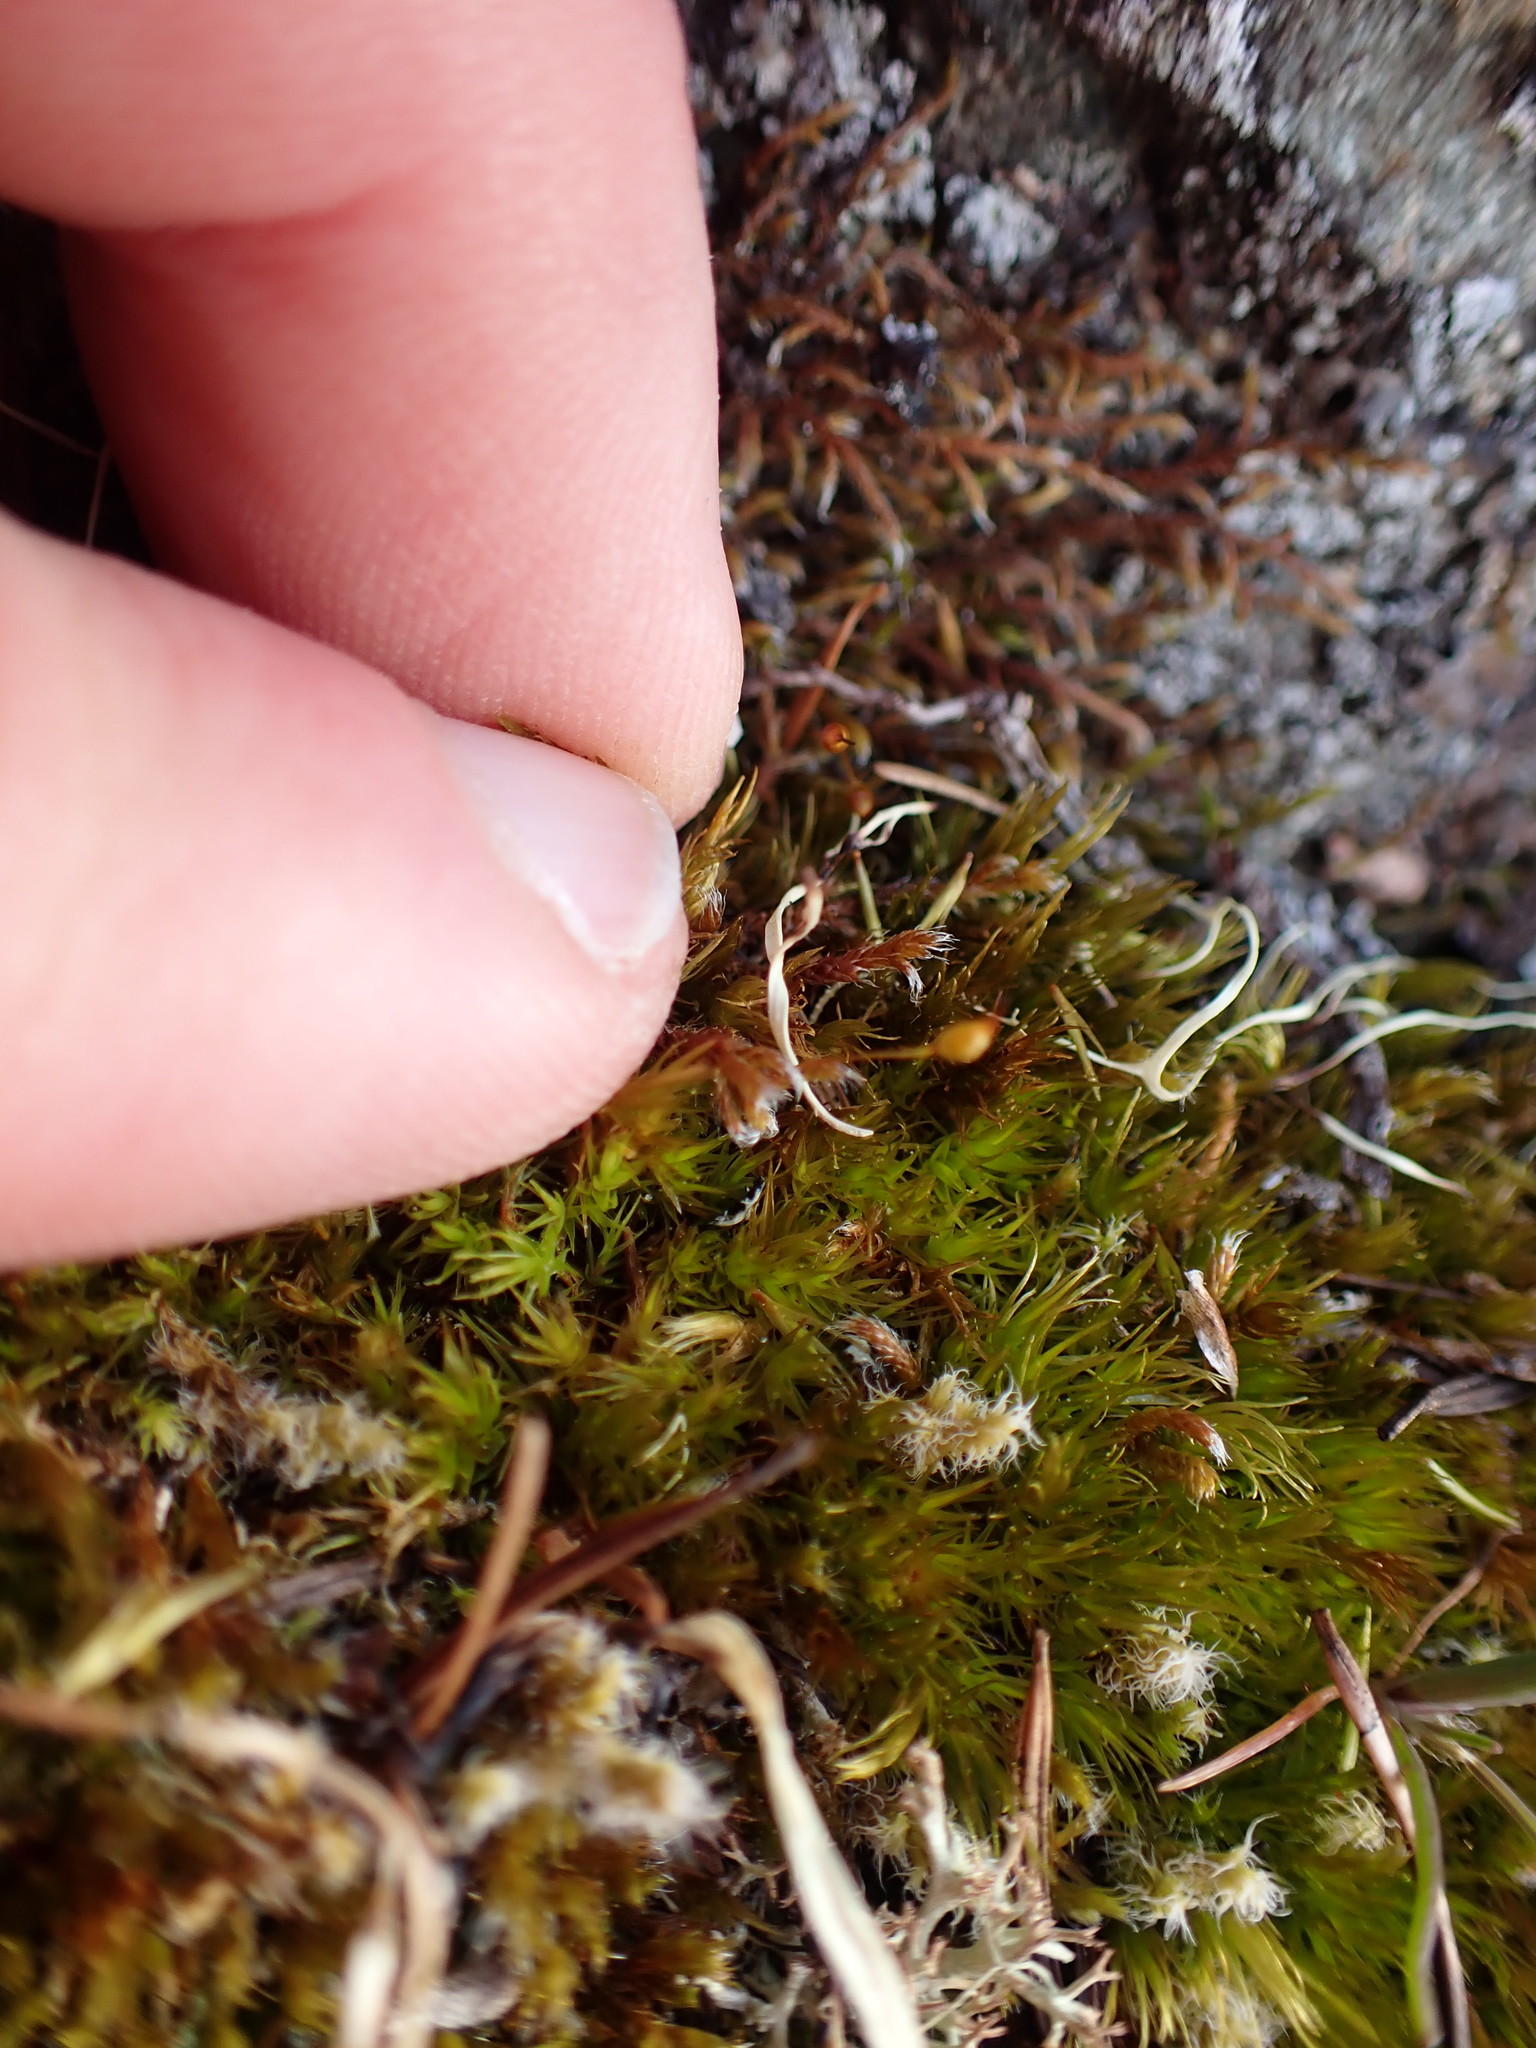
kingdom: Plantae
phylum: Bryophyta
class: Bryopsida
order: Hedwigiales
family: Hedwigiaceae
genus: Pseudobraunia
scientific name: Pseudobraunia californica
